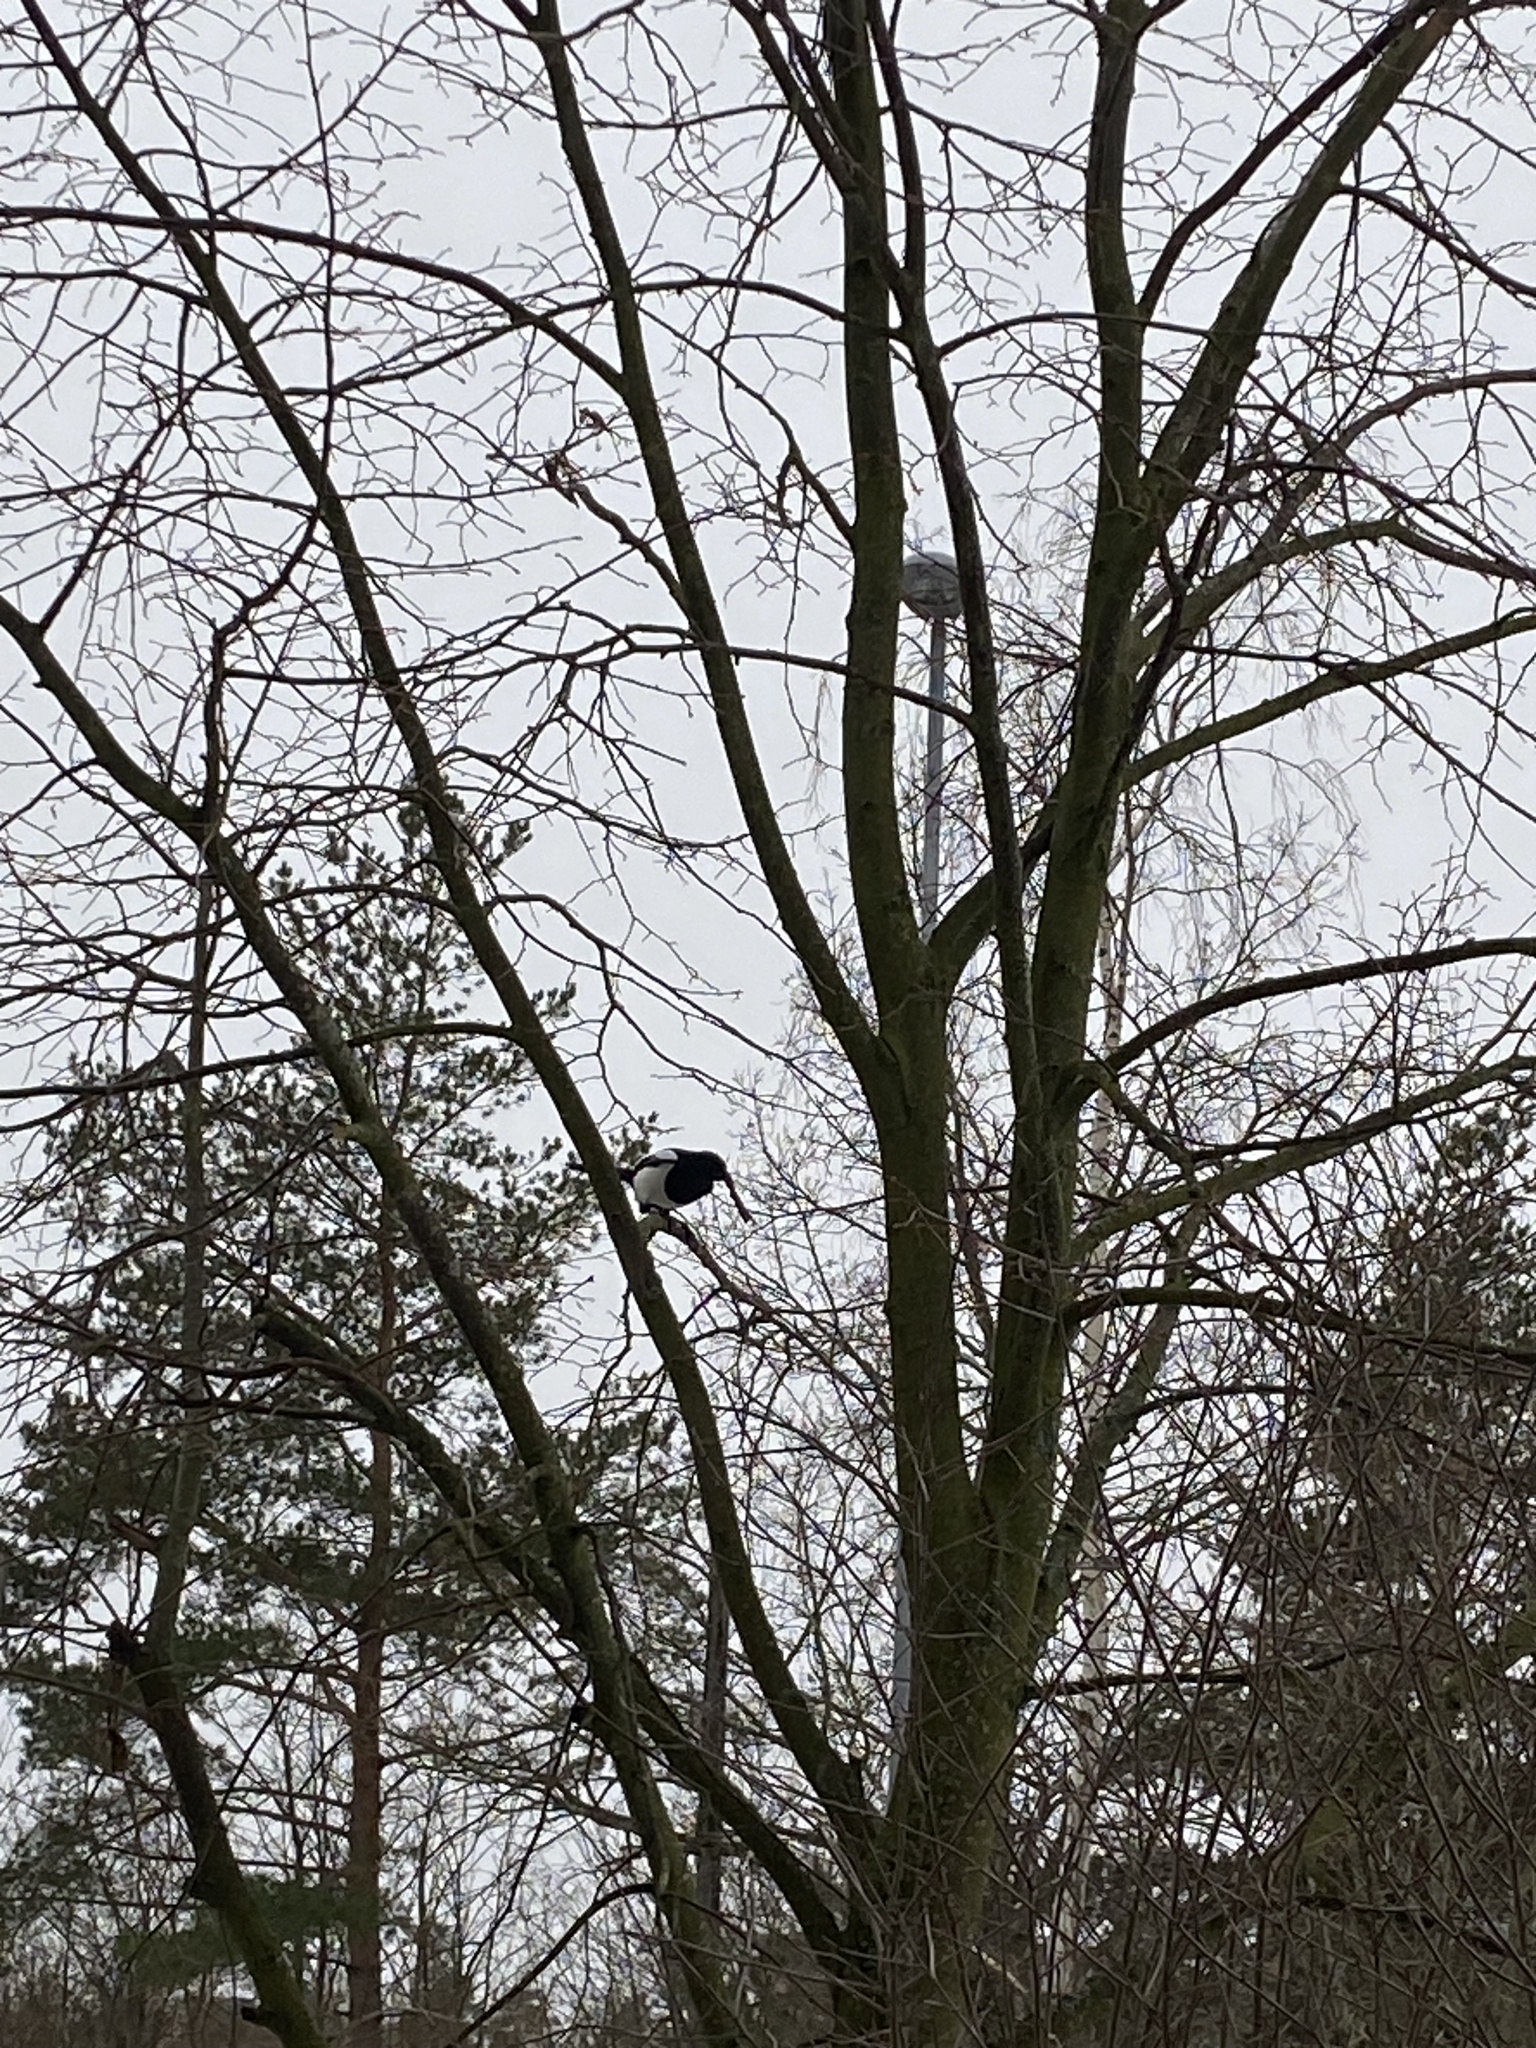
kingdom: Animalia
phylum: Chordata
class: Aves
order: Passeriformes
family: Corvidae
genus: Pica
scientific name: Pica pica
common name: Eurasian magpie
